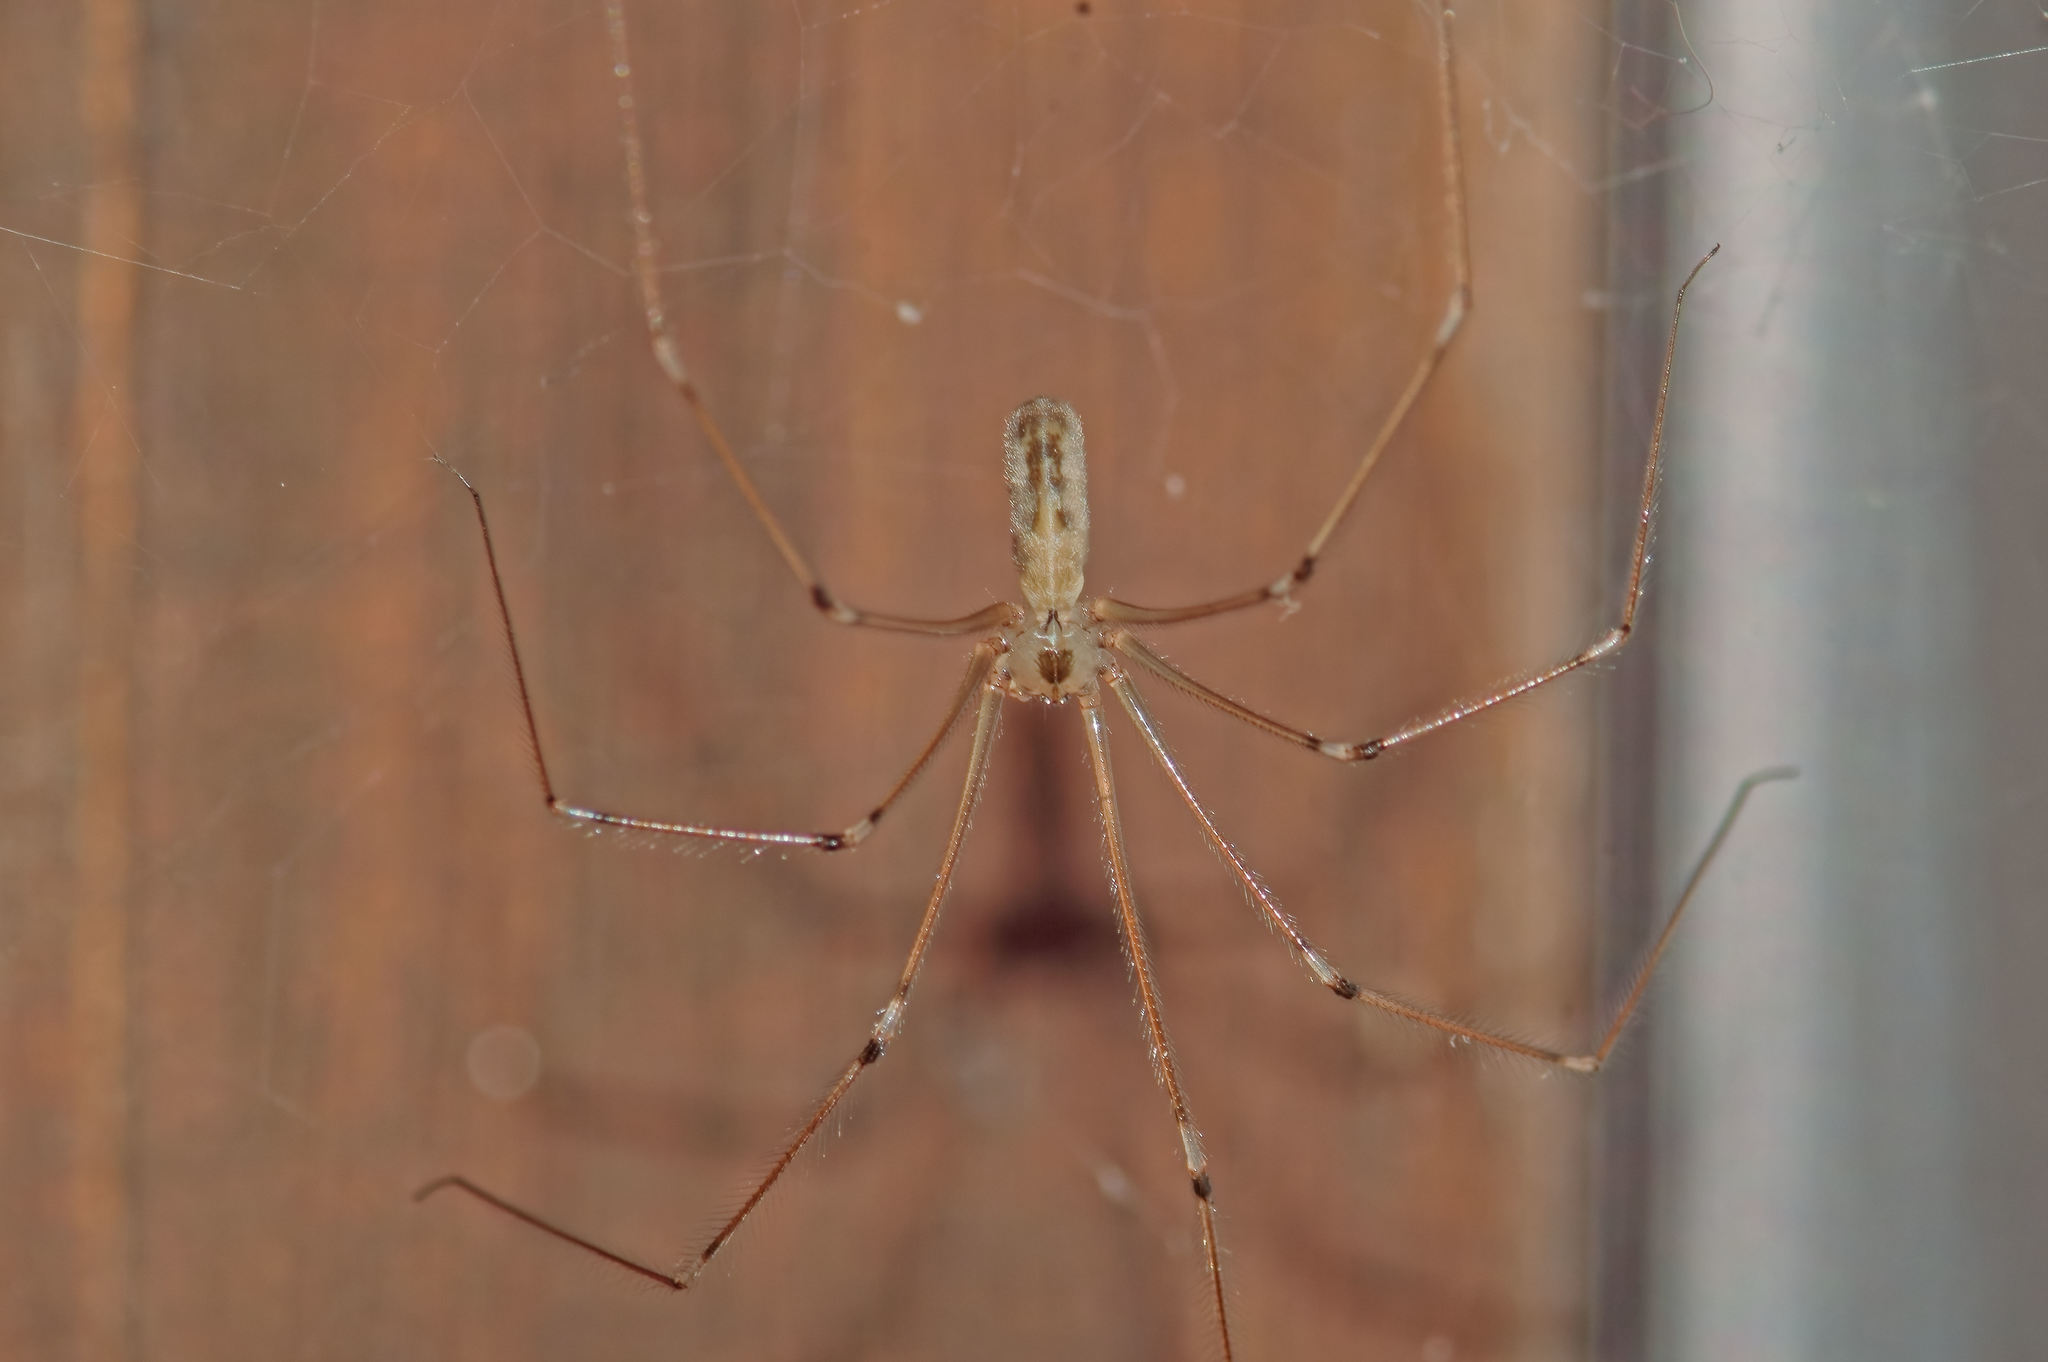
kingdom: Animalia
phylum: Arthropoda
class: Arachnida
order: Araneae
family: Pholcidae
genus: Pholcus
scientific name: Pholcus phalangioides
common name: Longbodied cellar spider
